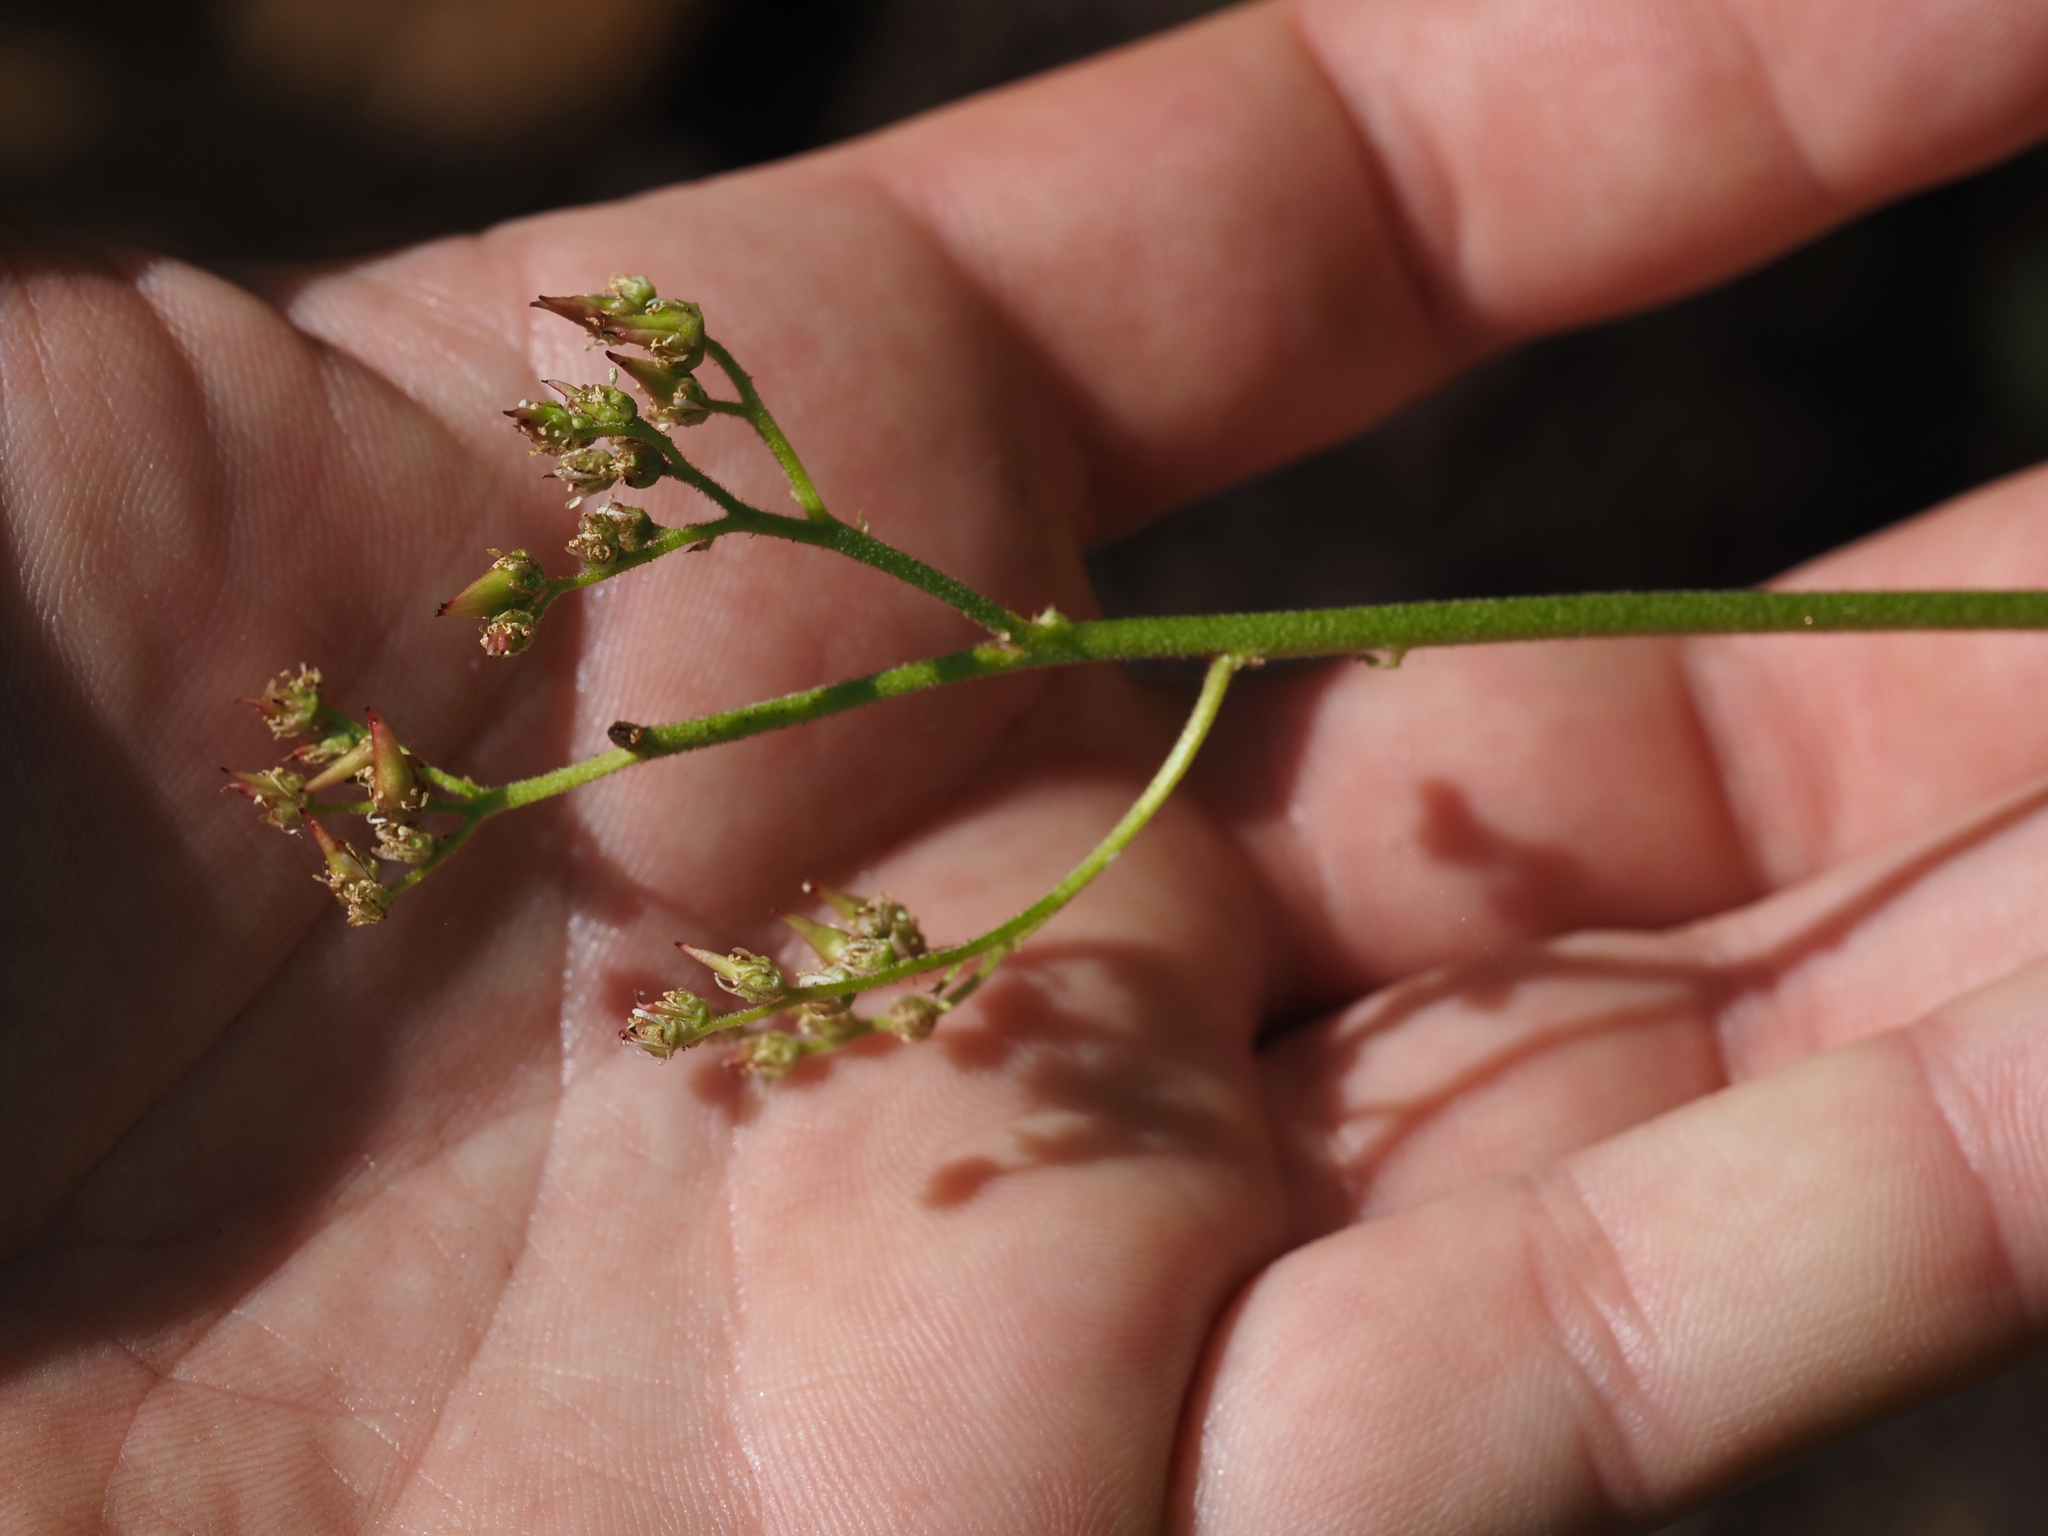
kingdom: Plantae
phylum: Tracheophyta
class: Magnoliopsida
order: Saxifragales
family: Saxifragaceae
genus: Leptarrhena
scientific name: Leptarrhena pyrolifolia
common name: Leatherleaf-saxifrage
